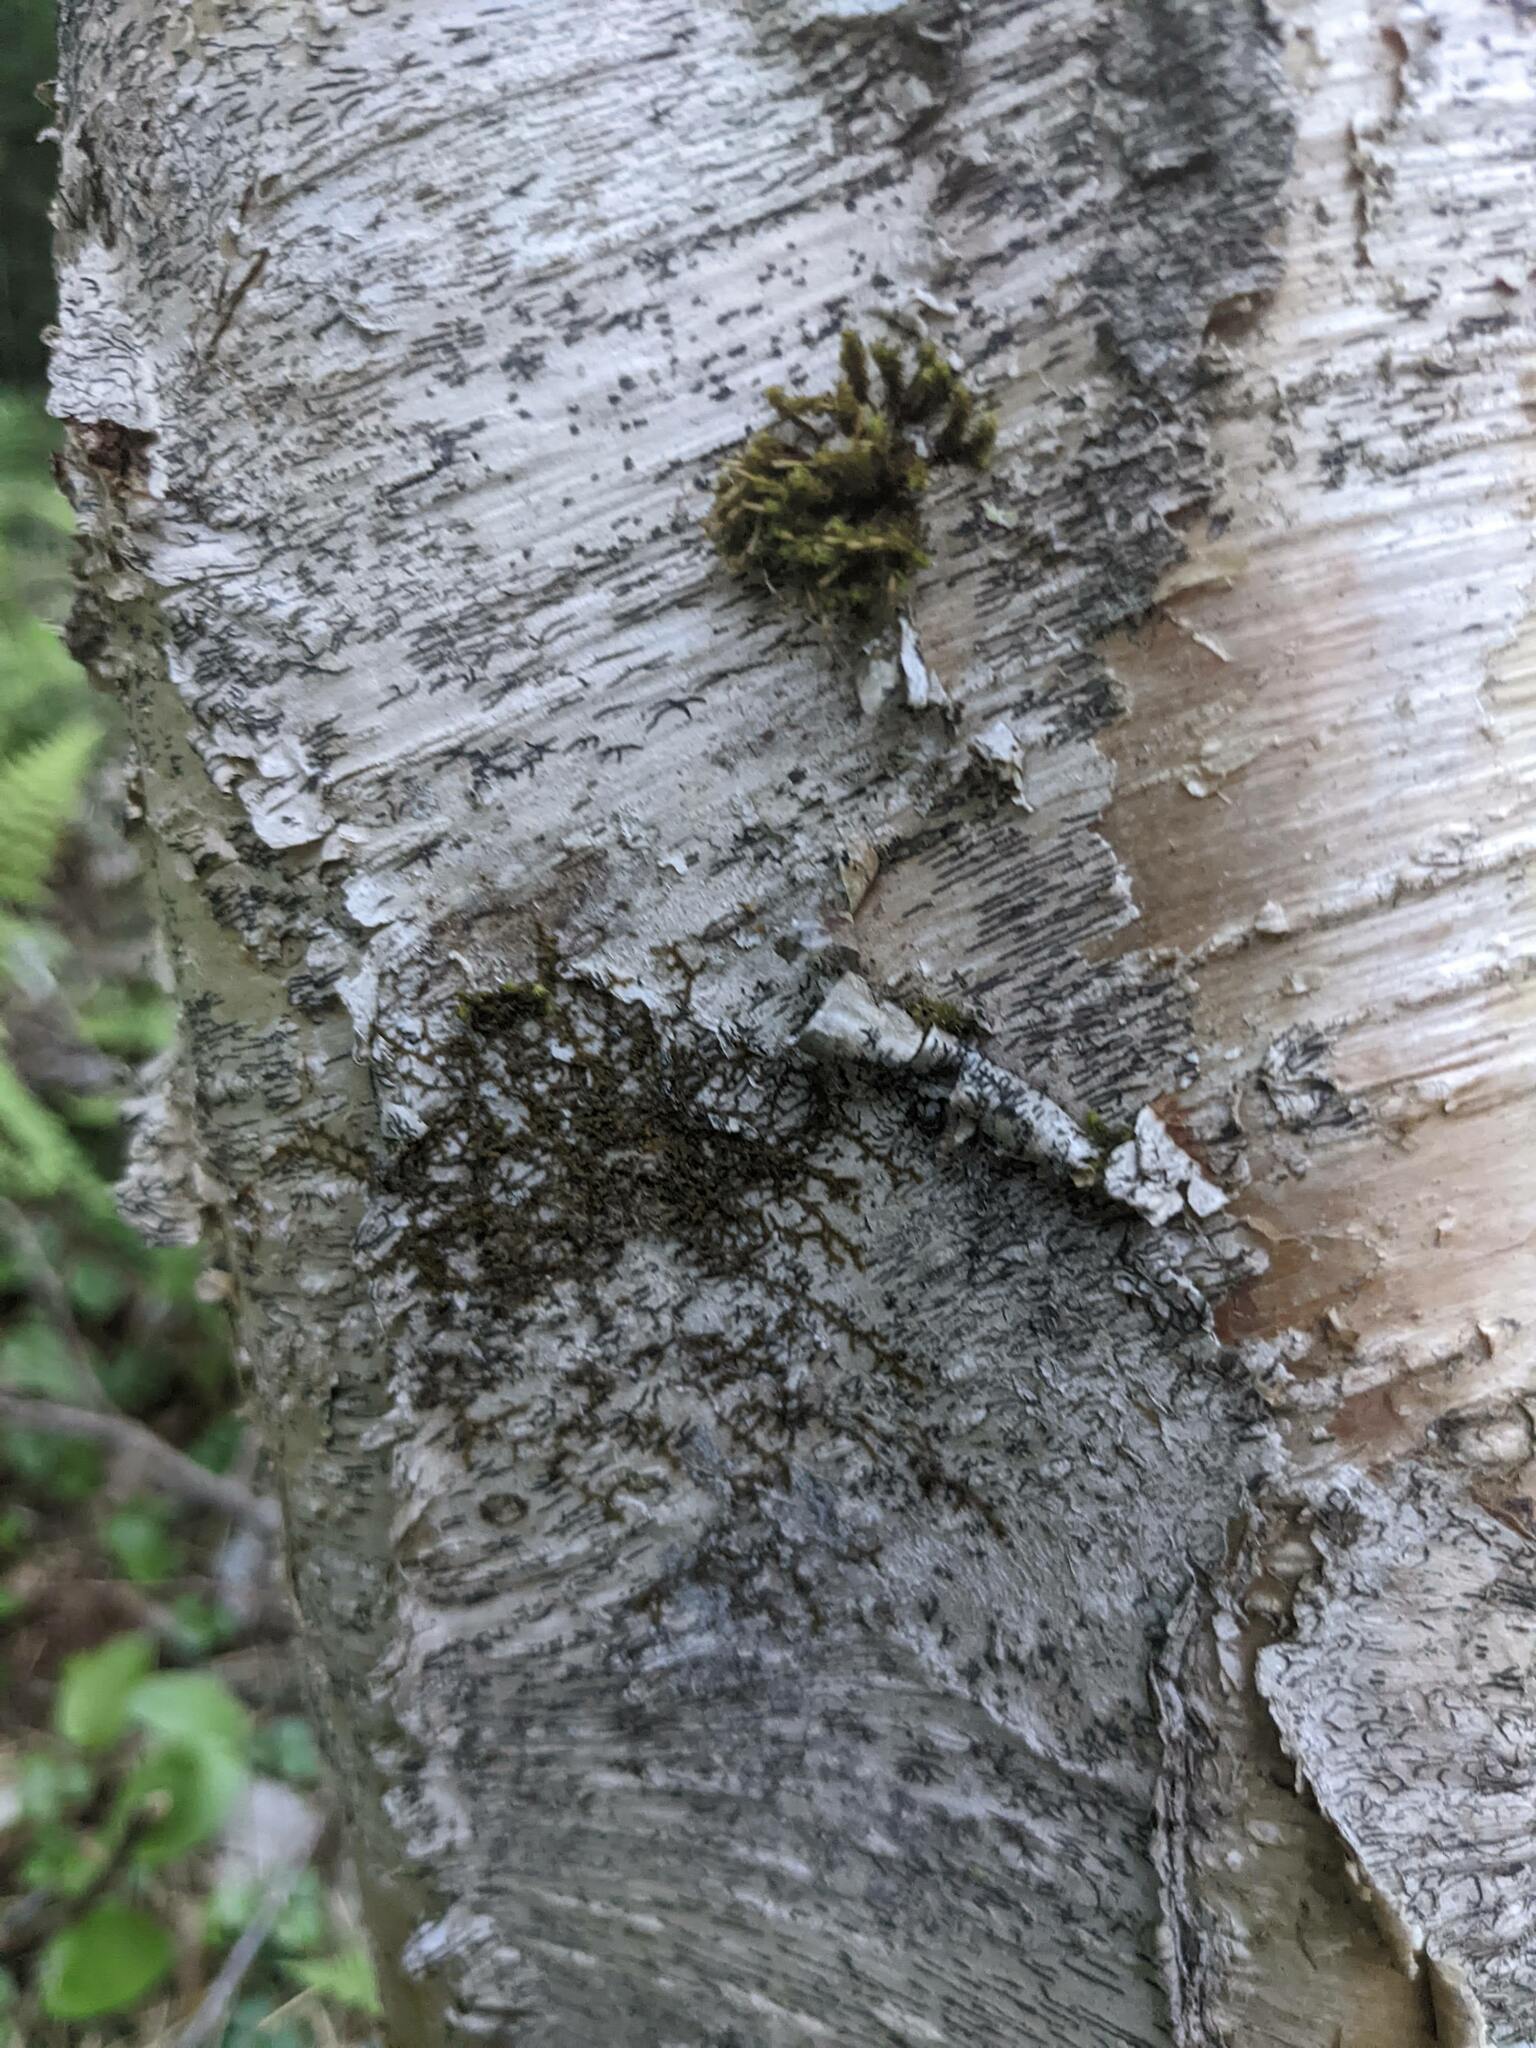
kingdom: Plantae
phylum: Marchantiophyta
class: Jungermanniopsida
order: Porellales
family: Frullaniaceae
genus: Frullania
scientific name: Frullania eboracensis
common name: New york scalewort
